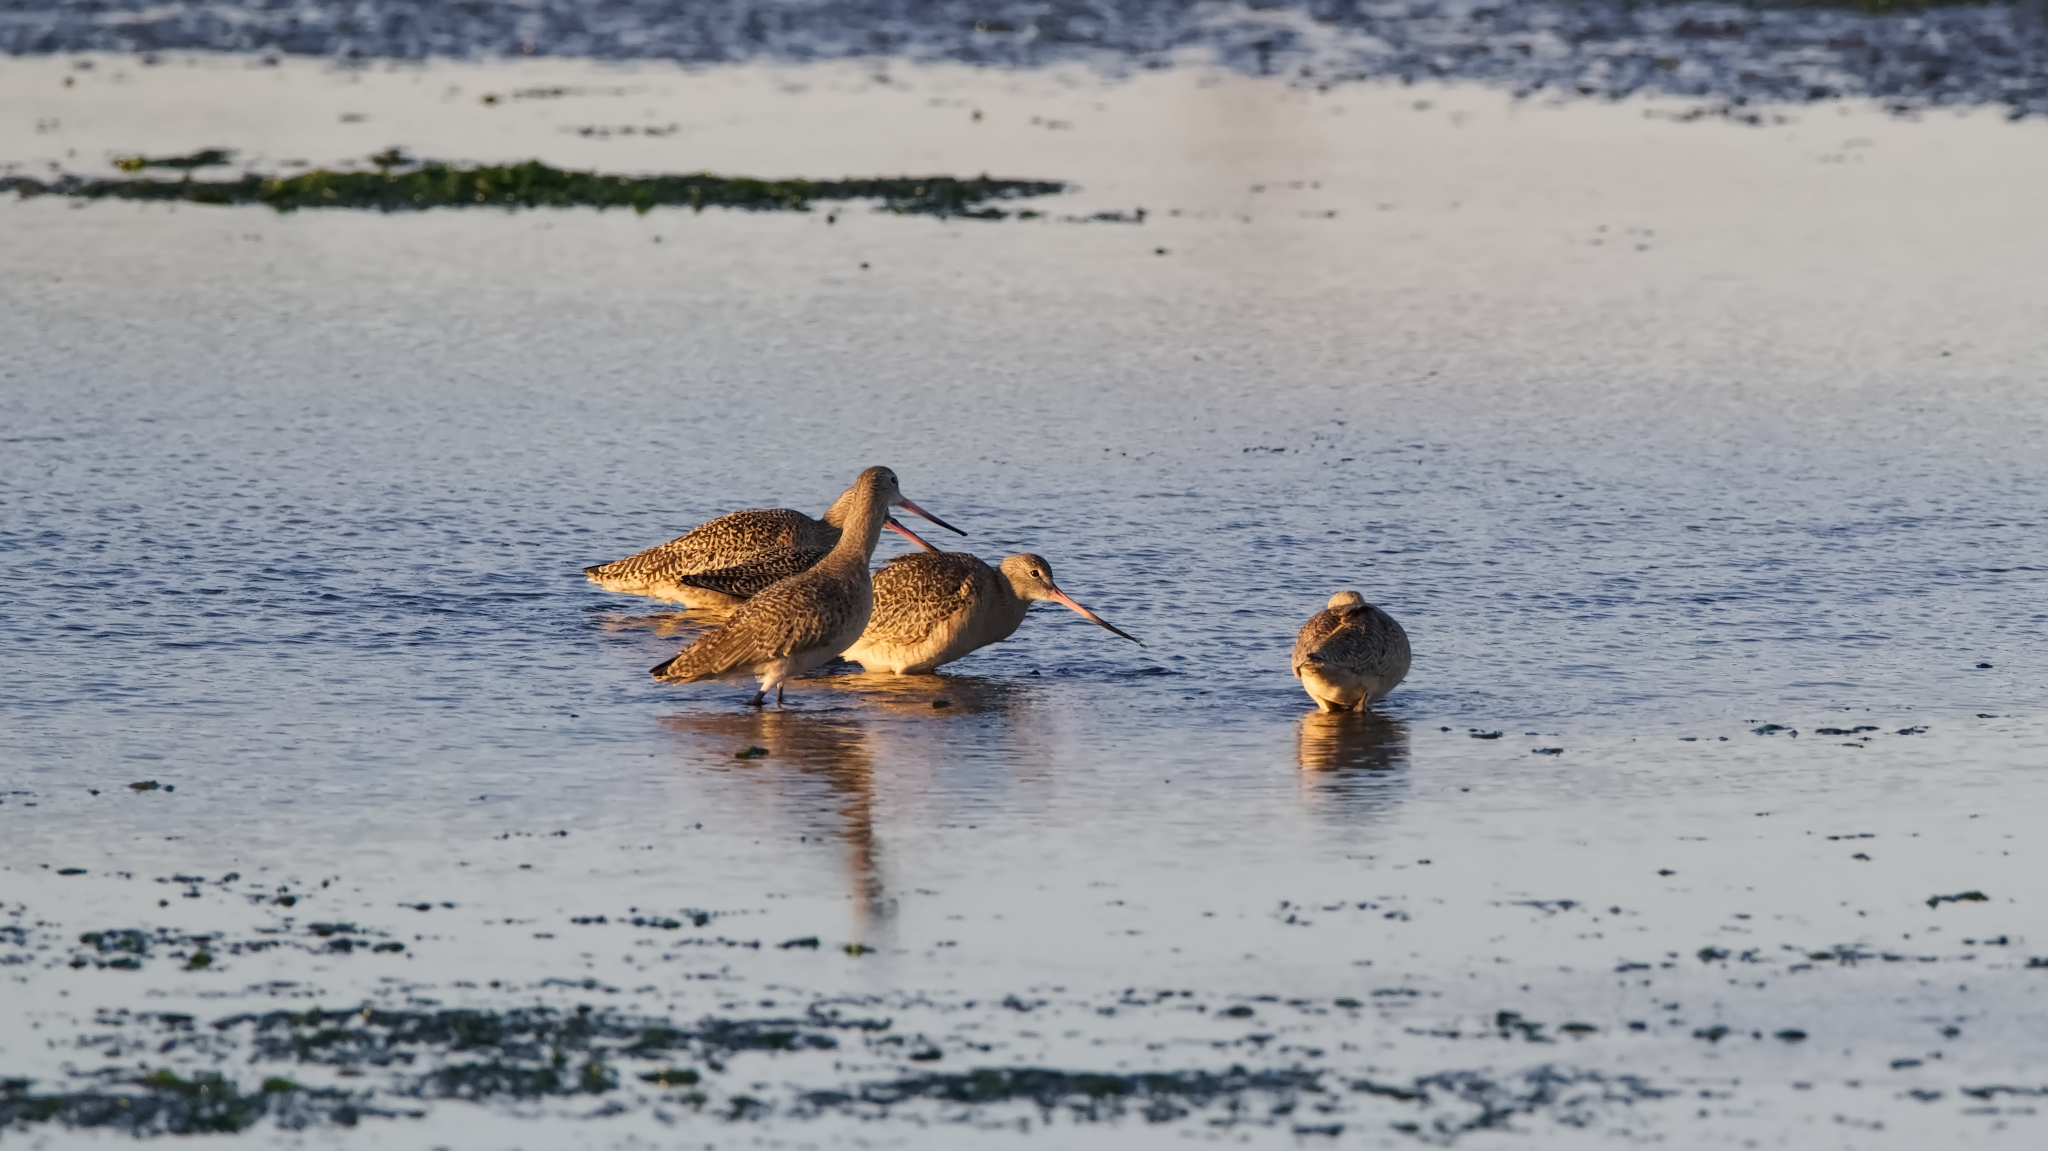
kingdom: Animalia
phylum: Chordata
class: Aves
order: Charadriiformes
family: Scolopacidae
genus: Limosa
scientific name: Limosa fedoa
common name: Marbled godwit
